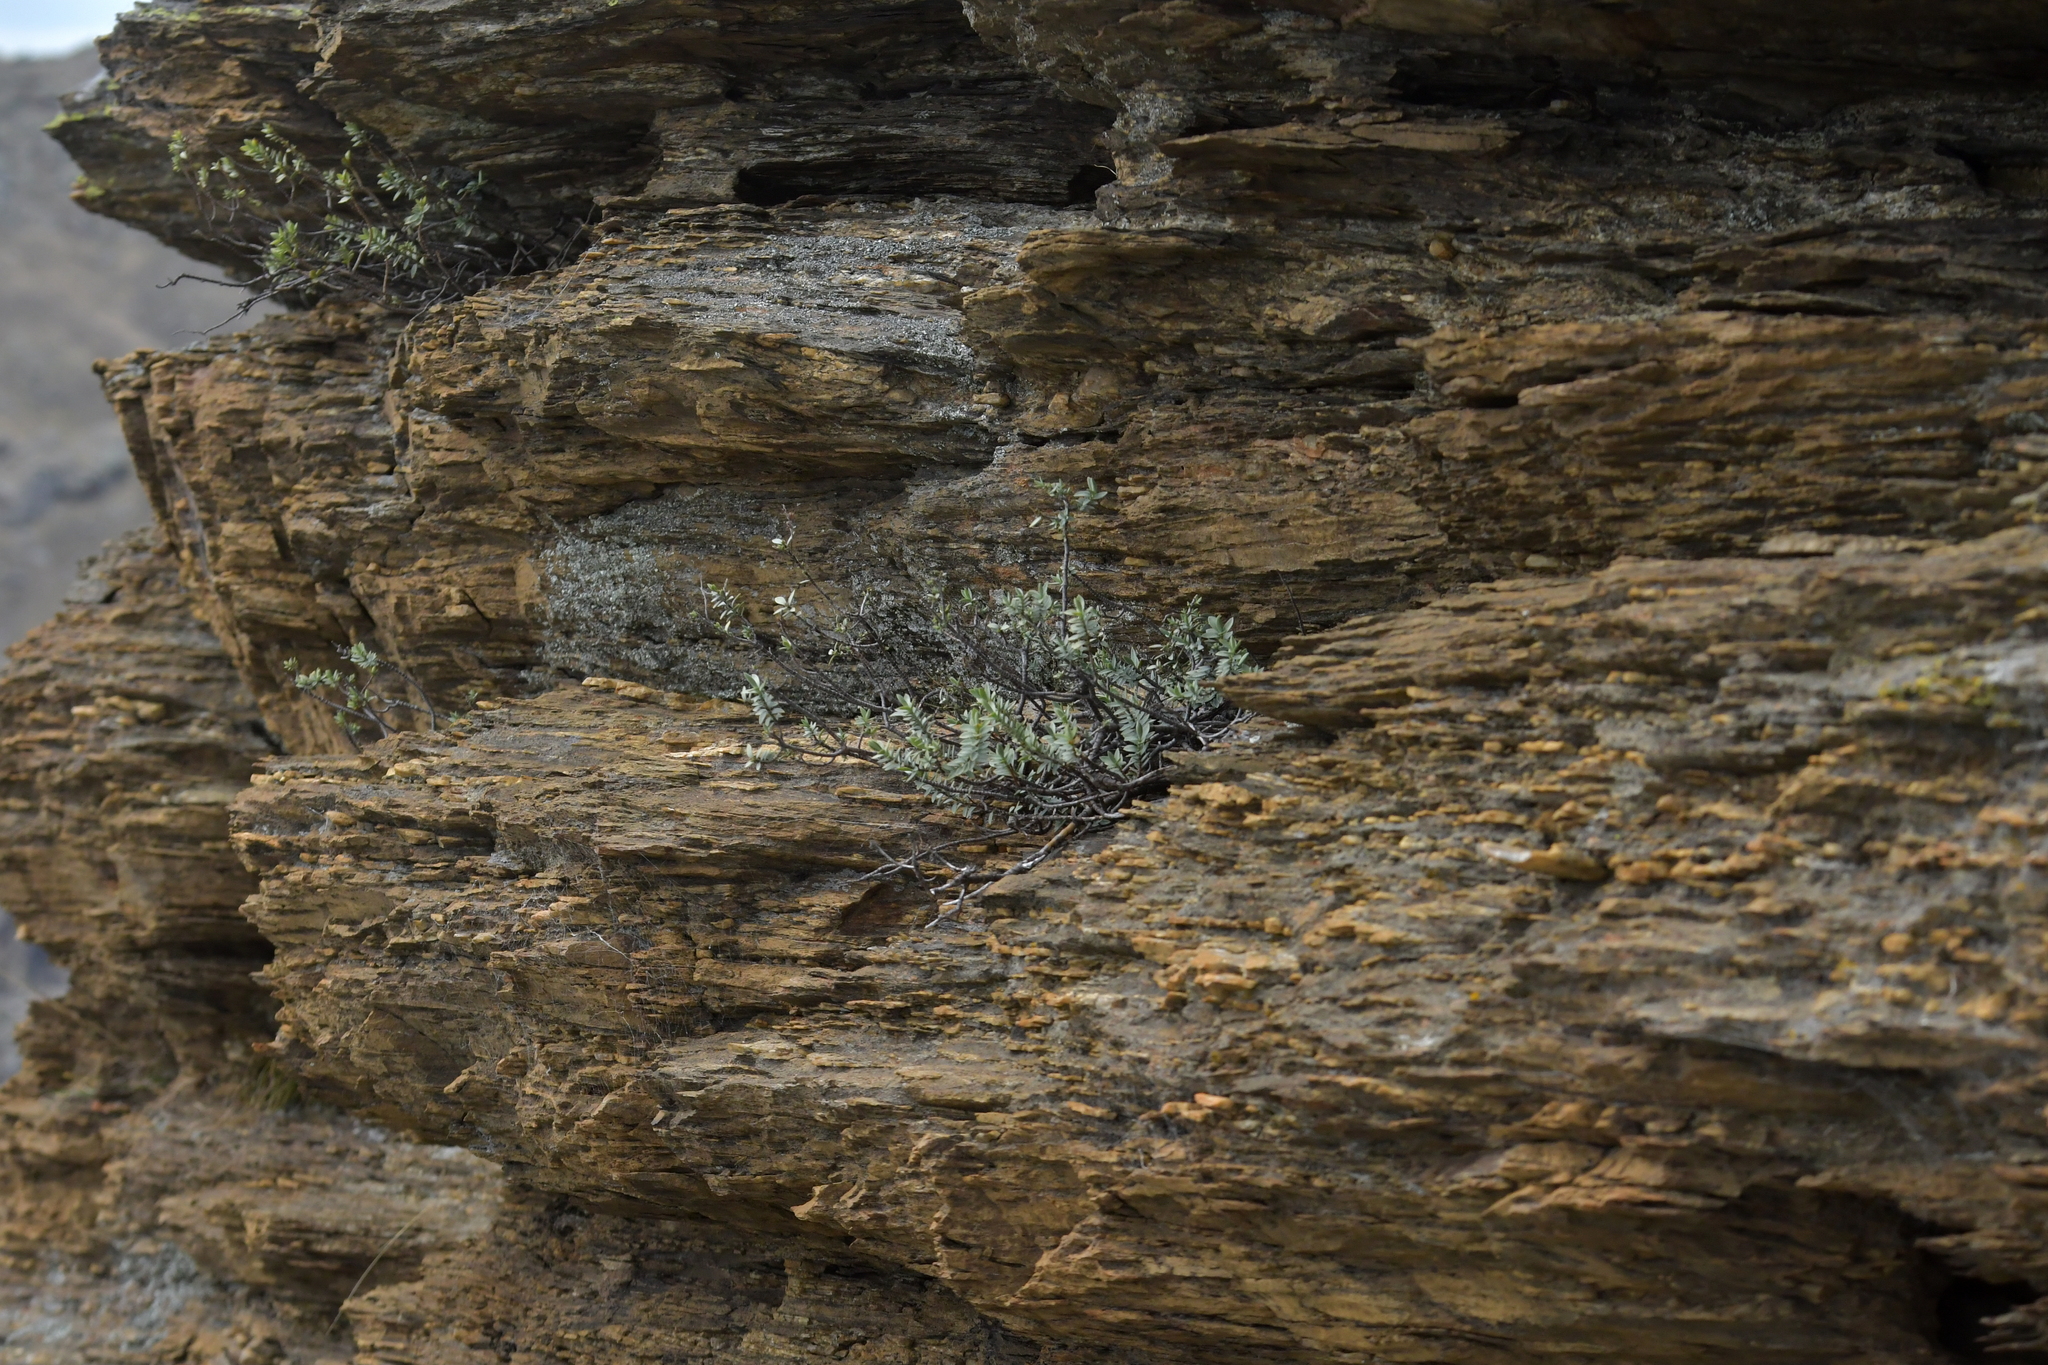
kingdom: Plantae
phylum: Tracheophyta
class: Magnoliopsida
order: Lamiales
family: Plantaginaceae
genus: Veronica
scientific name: Veronica pimeleoides
